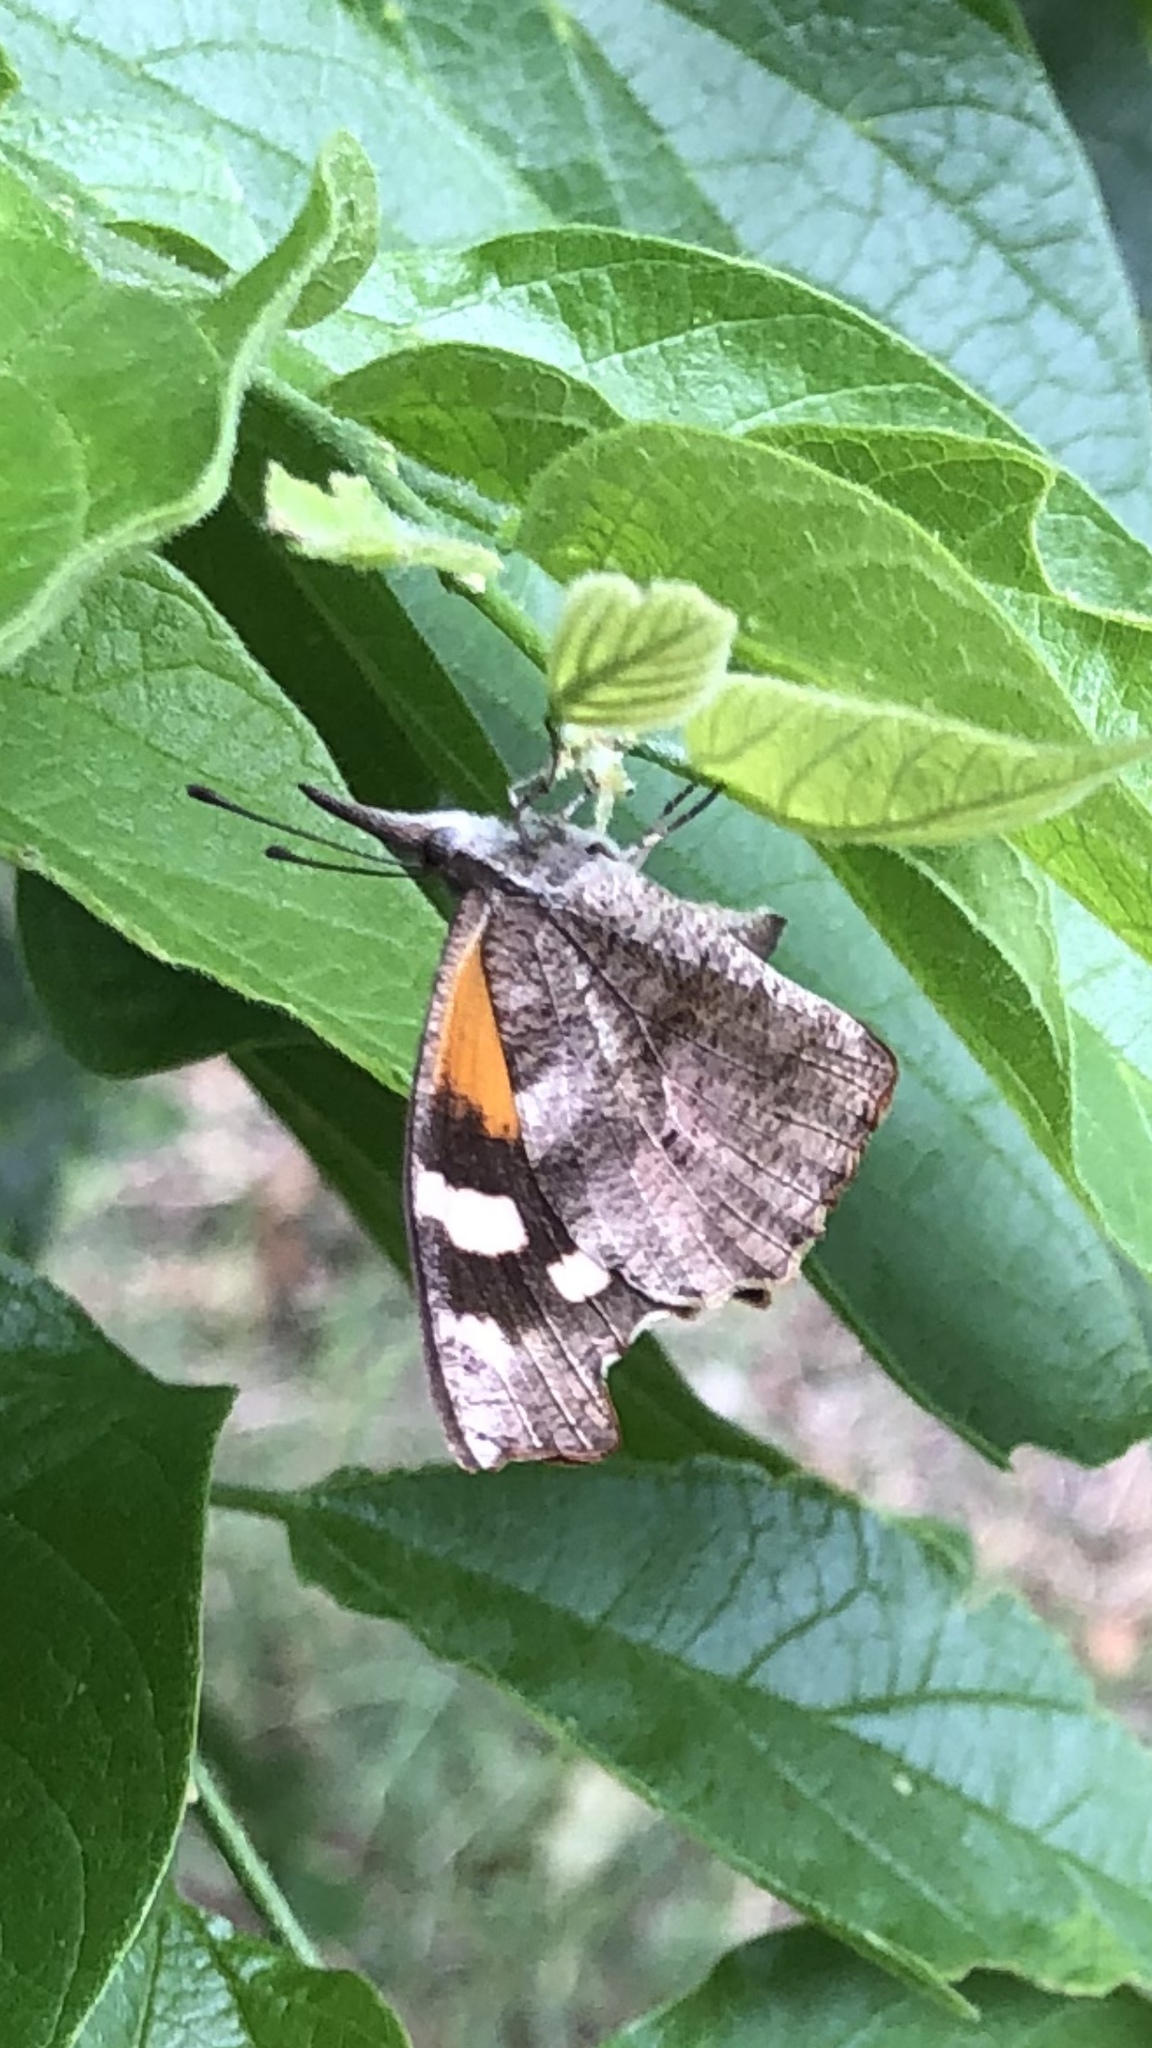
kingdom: Animalia
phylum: Arthropoda
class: Insecta
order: Lepidoptera
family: Nymphalidae
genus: Libytheana
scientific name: Libytheana carinenta
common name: American snout
